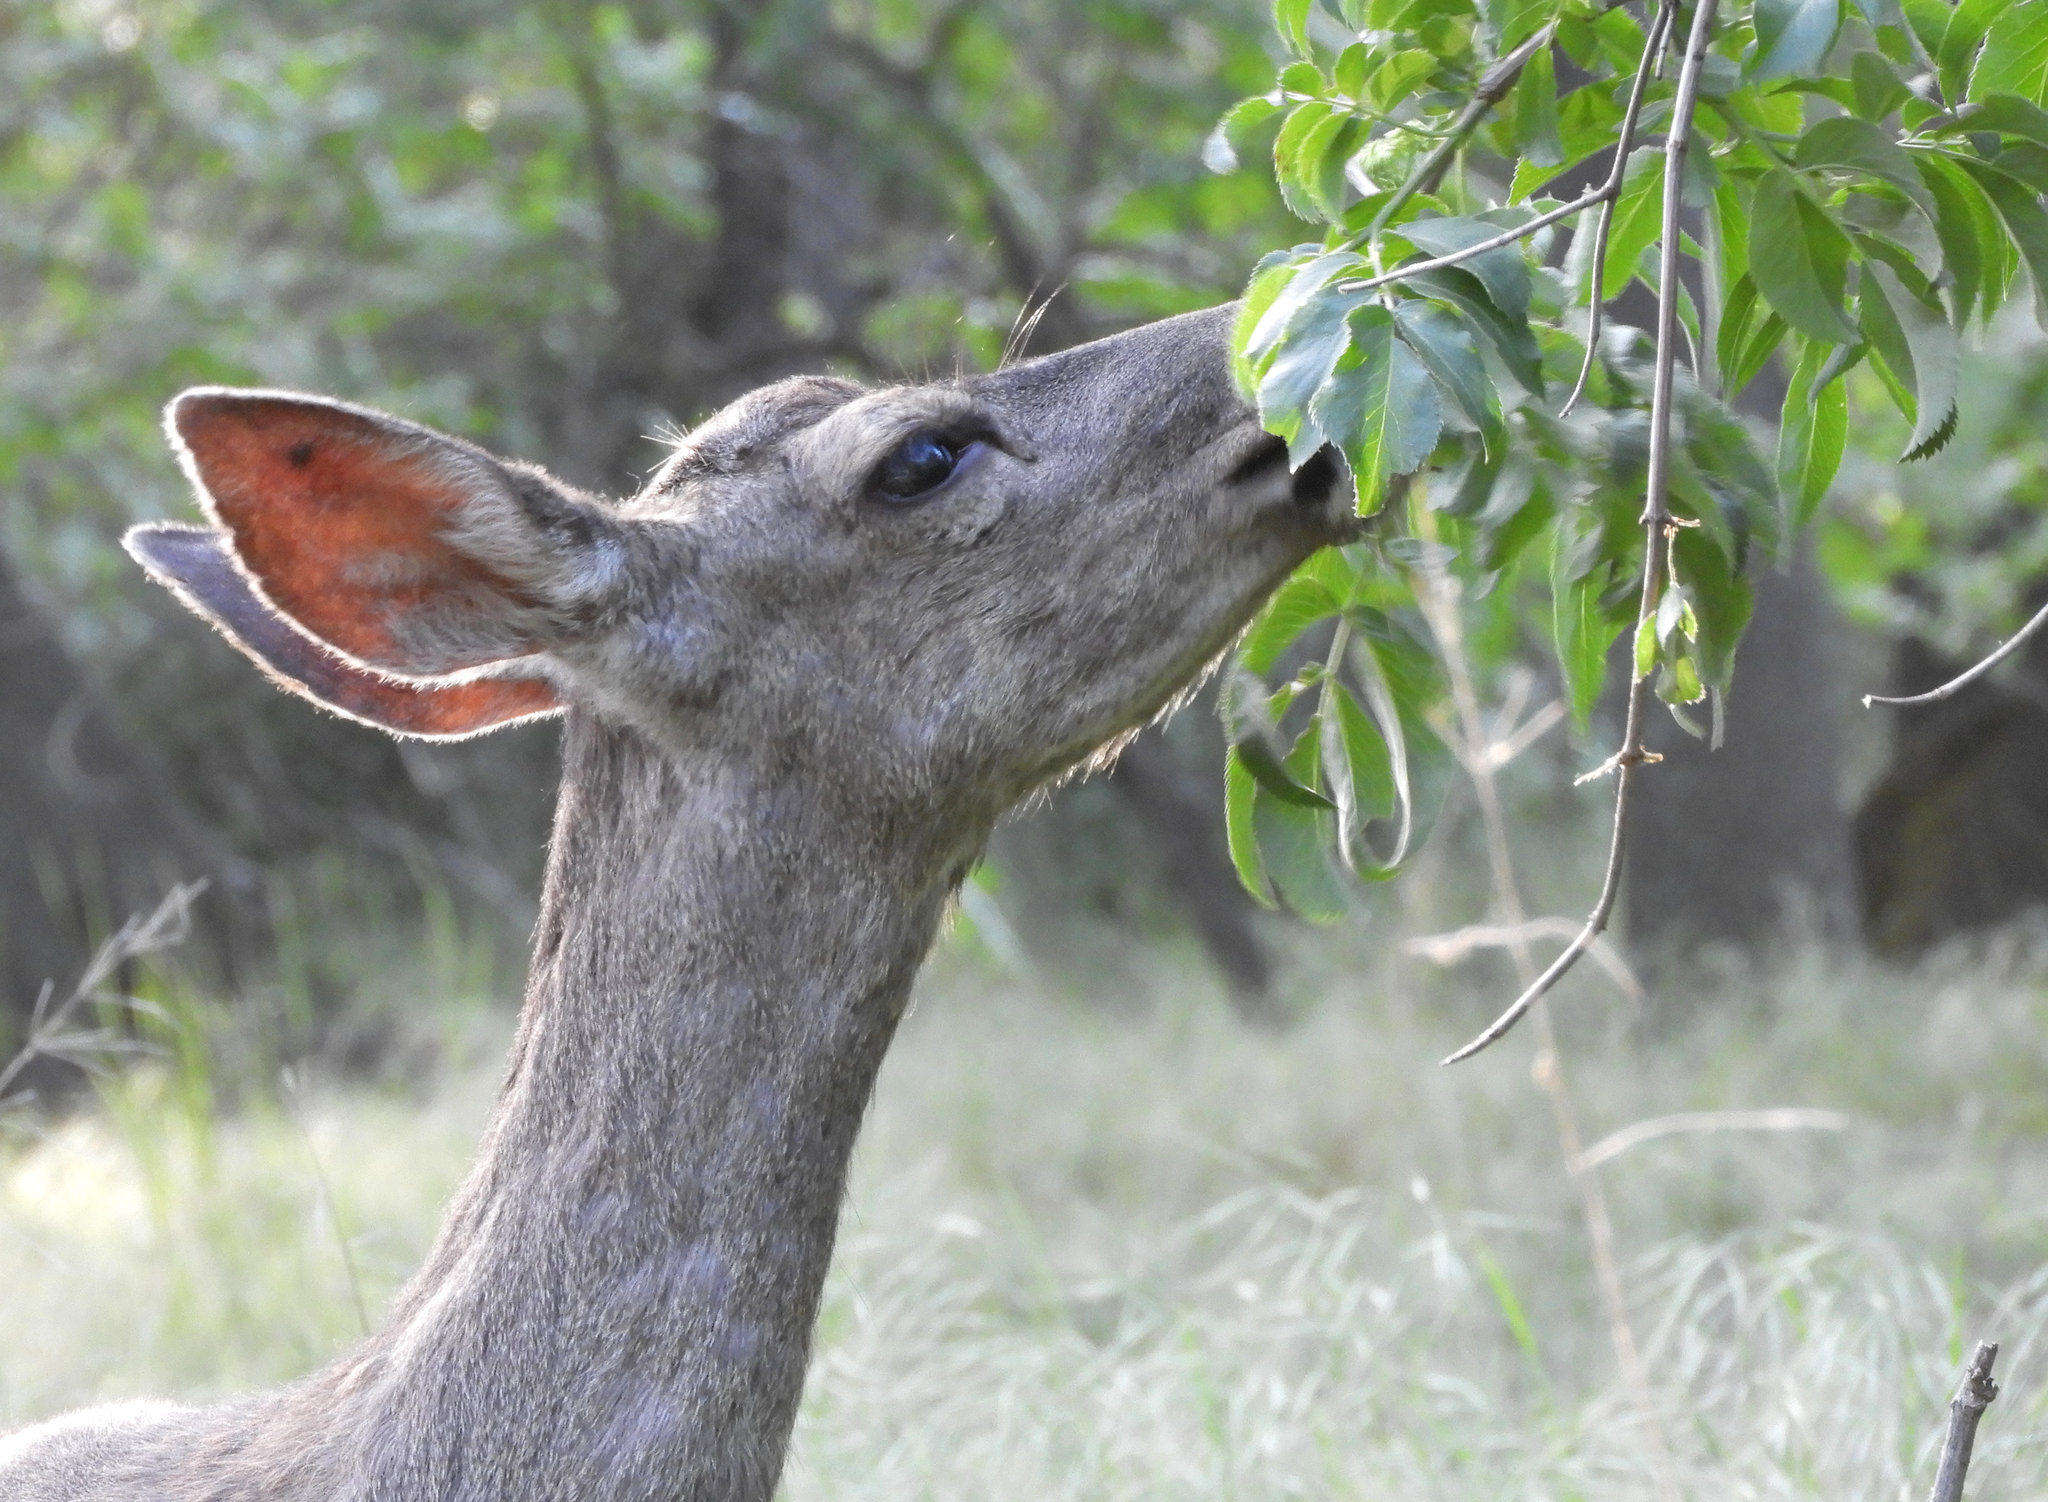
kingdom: Animalia
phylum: Chordata
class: Mammalia
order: Artiodactyla
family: Cervidae
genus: Odocoileus
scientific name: Odocoileus hemionus
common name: Mule deer
